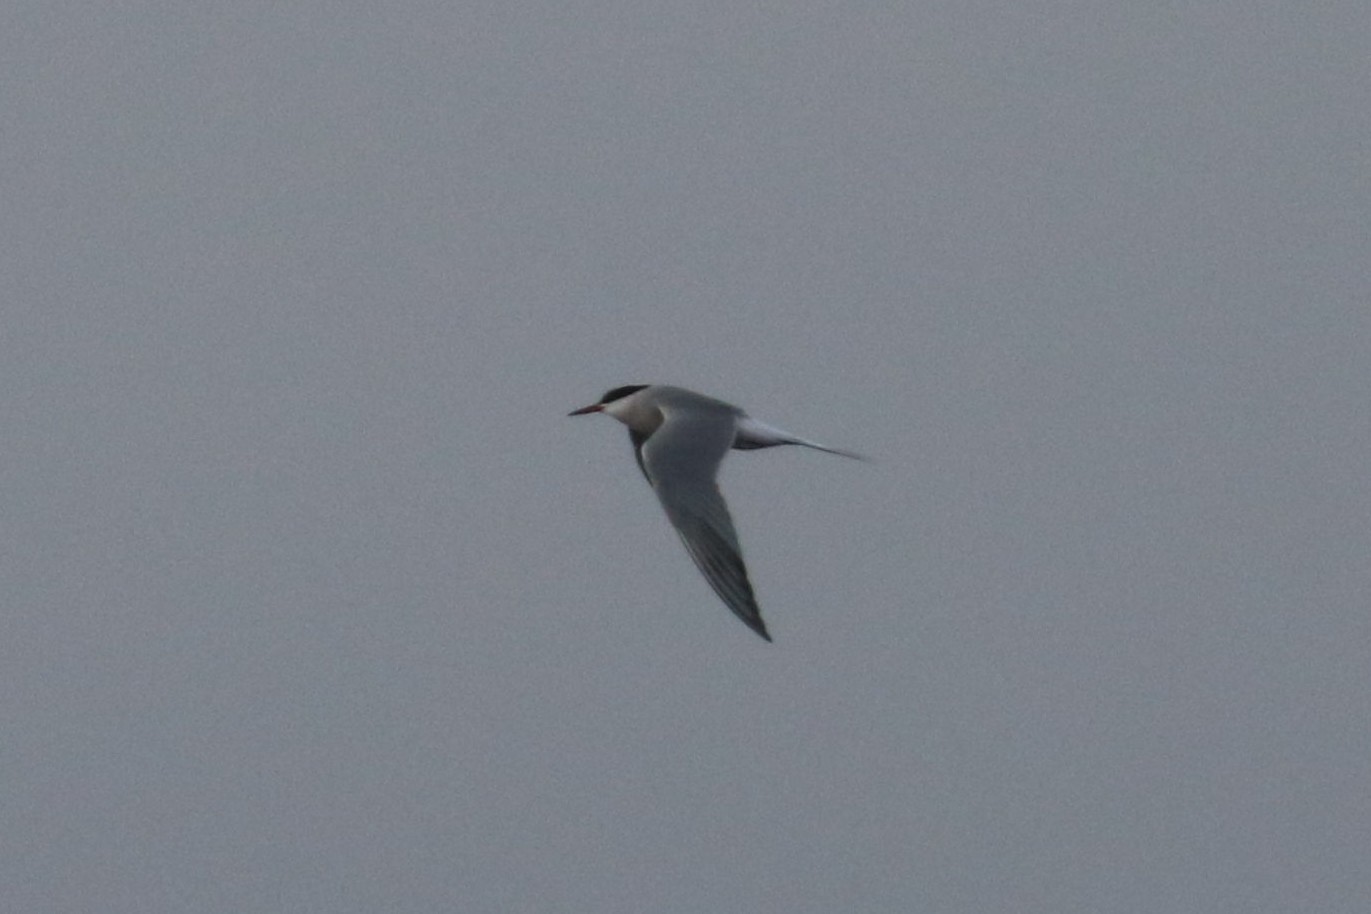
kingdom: Animalia
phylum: Chordata
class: Aves
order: Charadriiformes
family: Laridae
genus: Sterna
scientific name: Sterna hirundo
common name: Common tern
